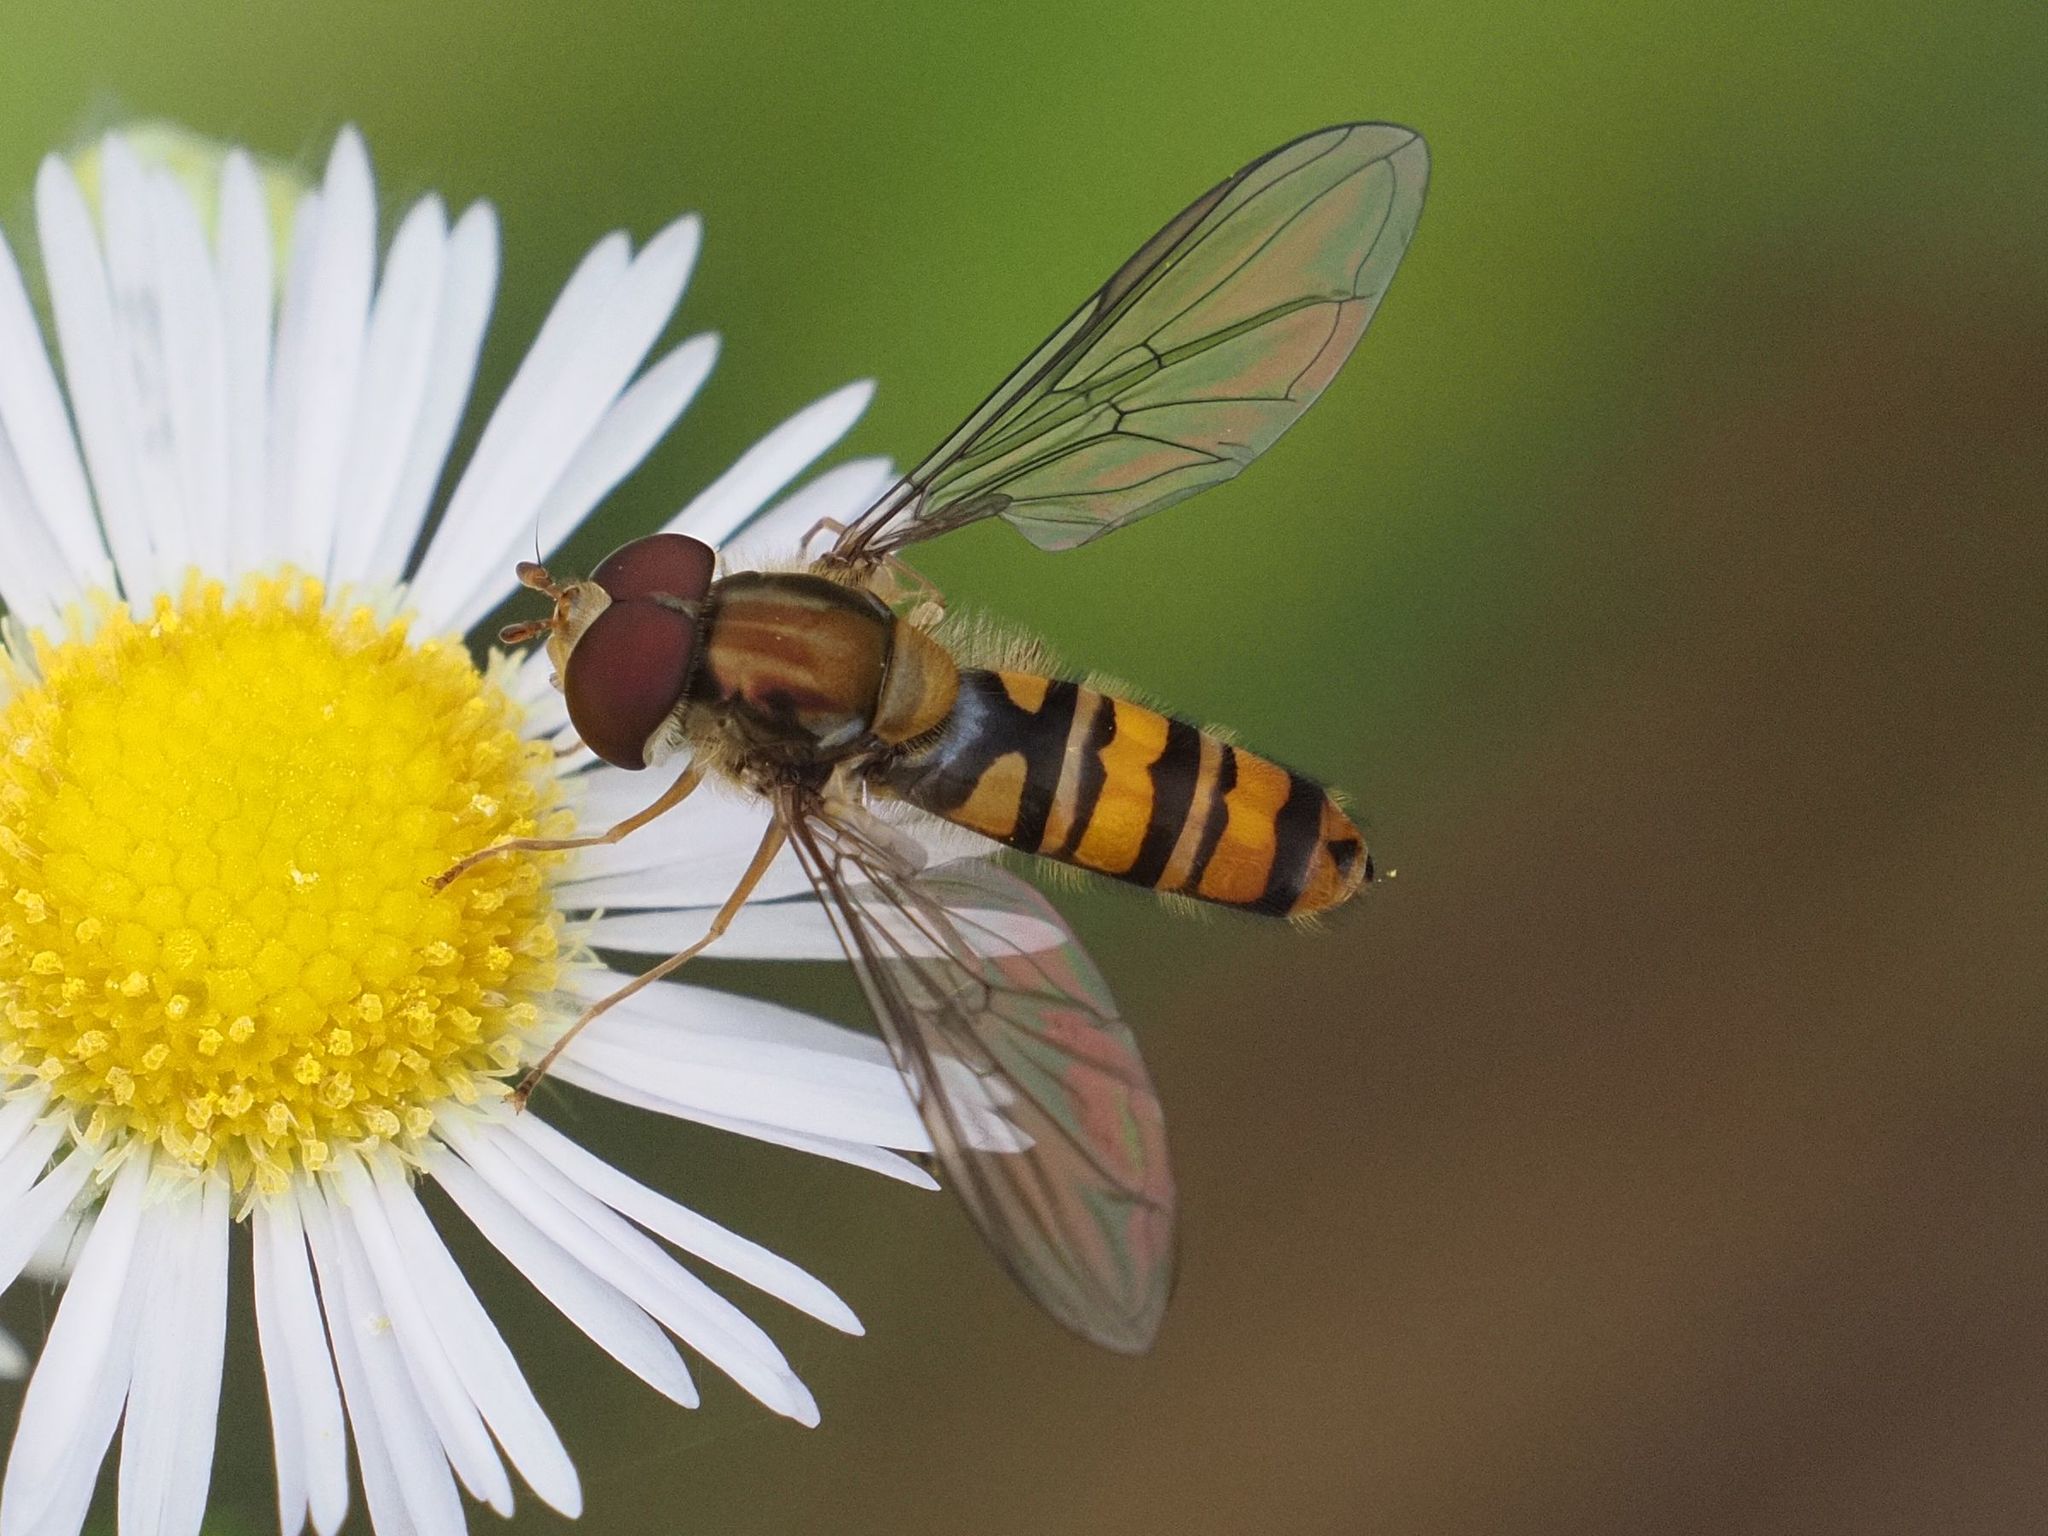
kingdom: Animalia
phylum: Arthropoda
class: Insecta
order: Diptera
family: Syrphidae
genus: Episyrphus
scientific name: Episyrphus balteatus
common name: Marmalade hoverfly
